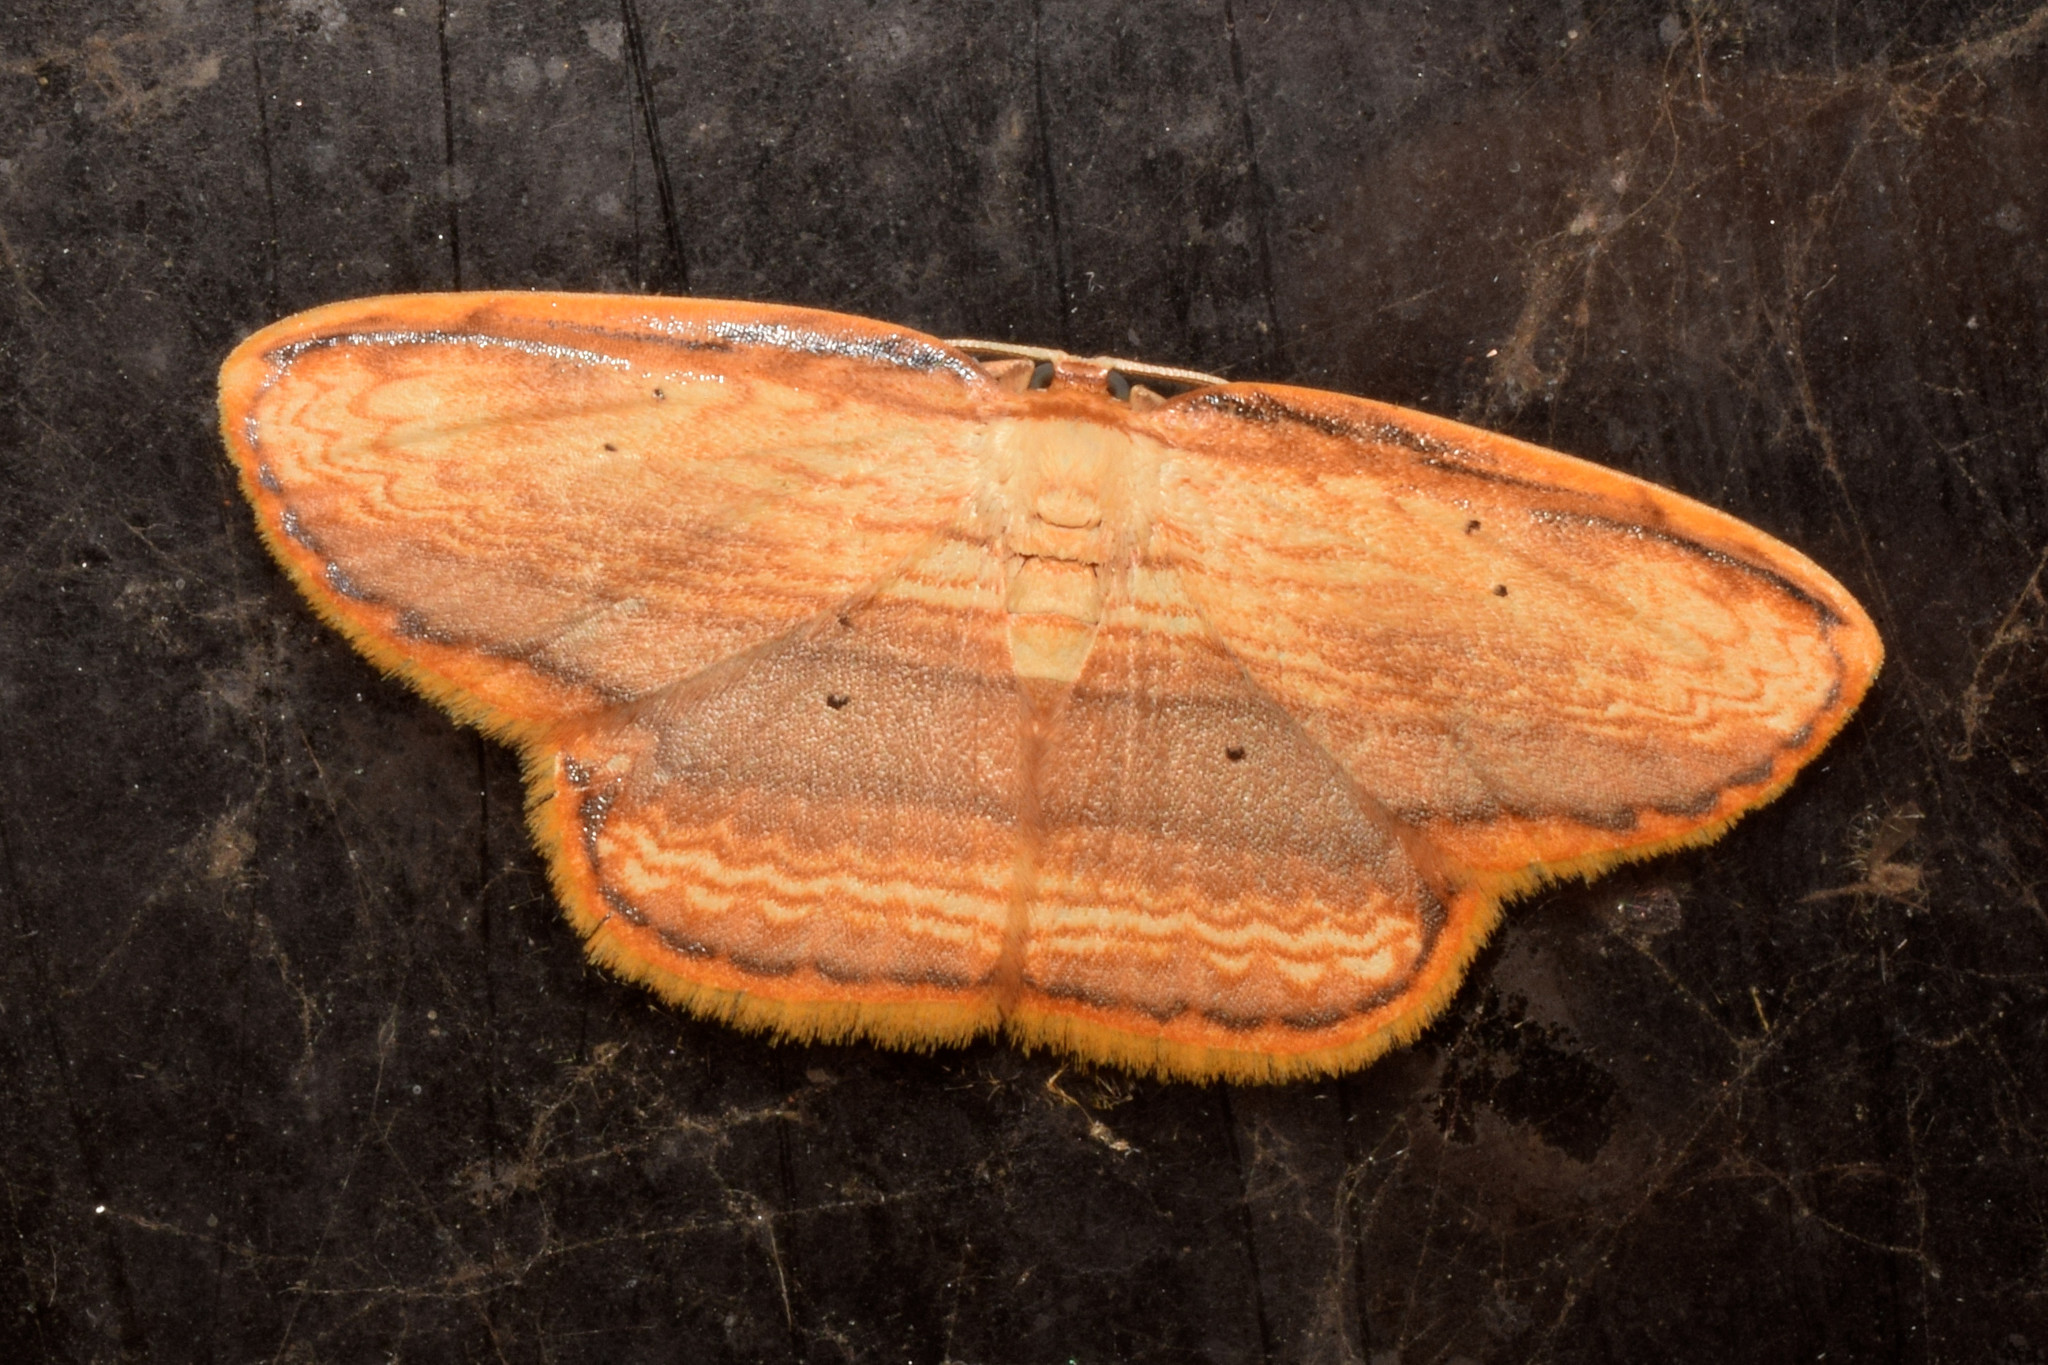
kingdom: Animalia
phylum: Arthropoda
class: Insecta
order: Lepidoptera
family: Drepanidae
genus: Drapetodes
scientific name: Drapetodes mitaria
